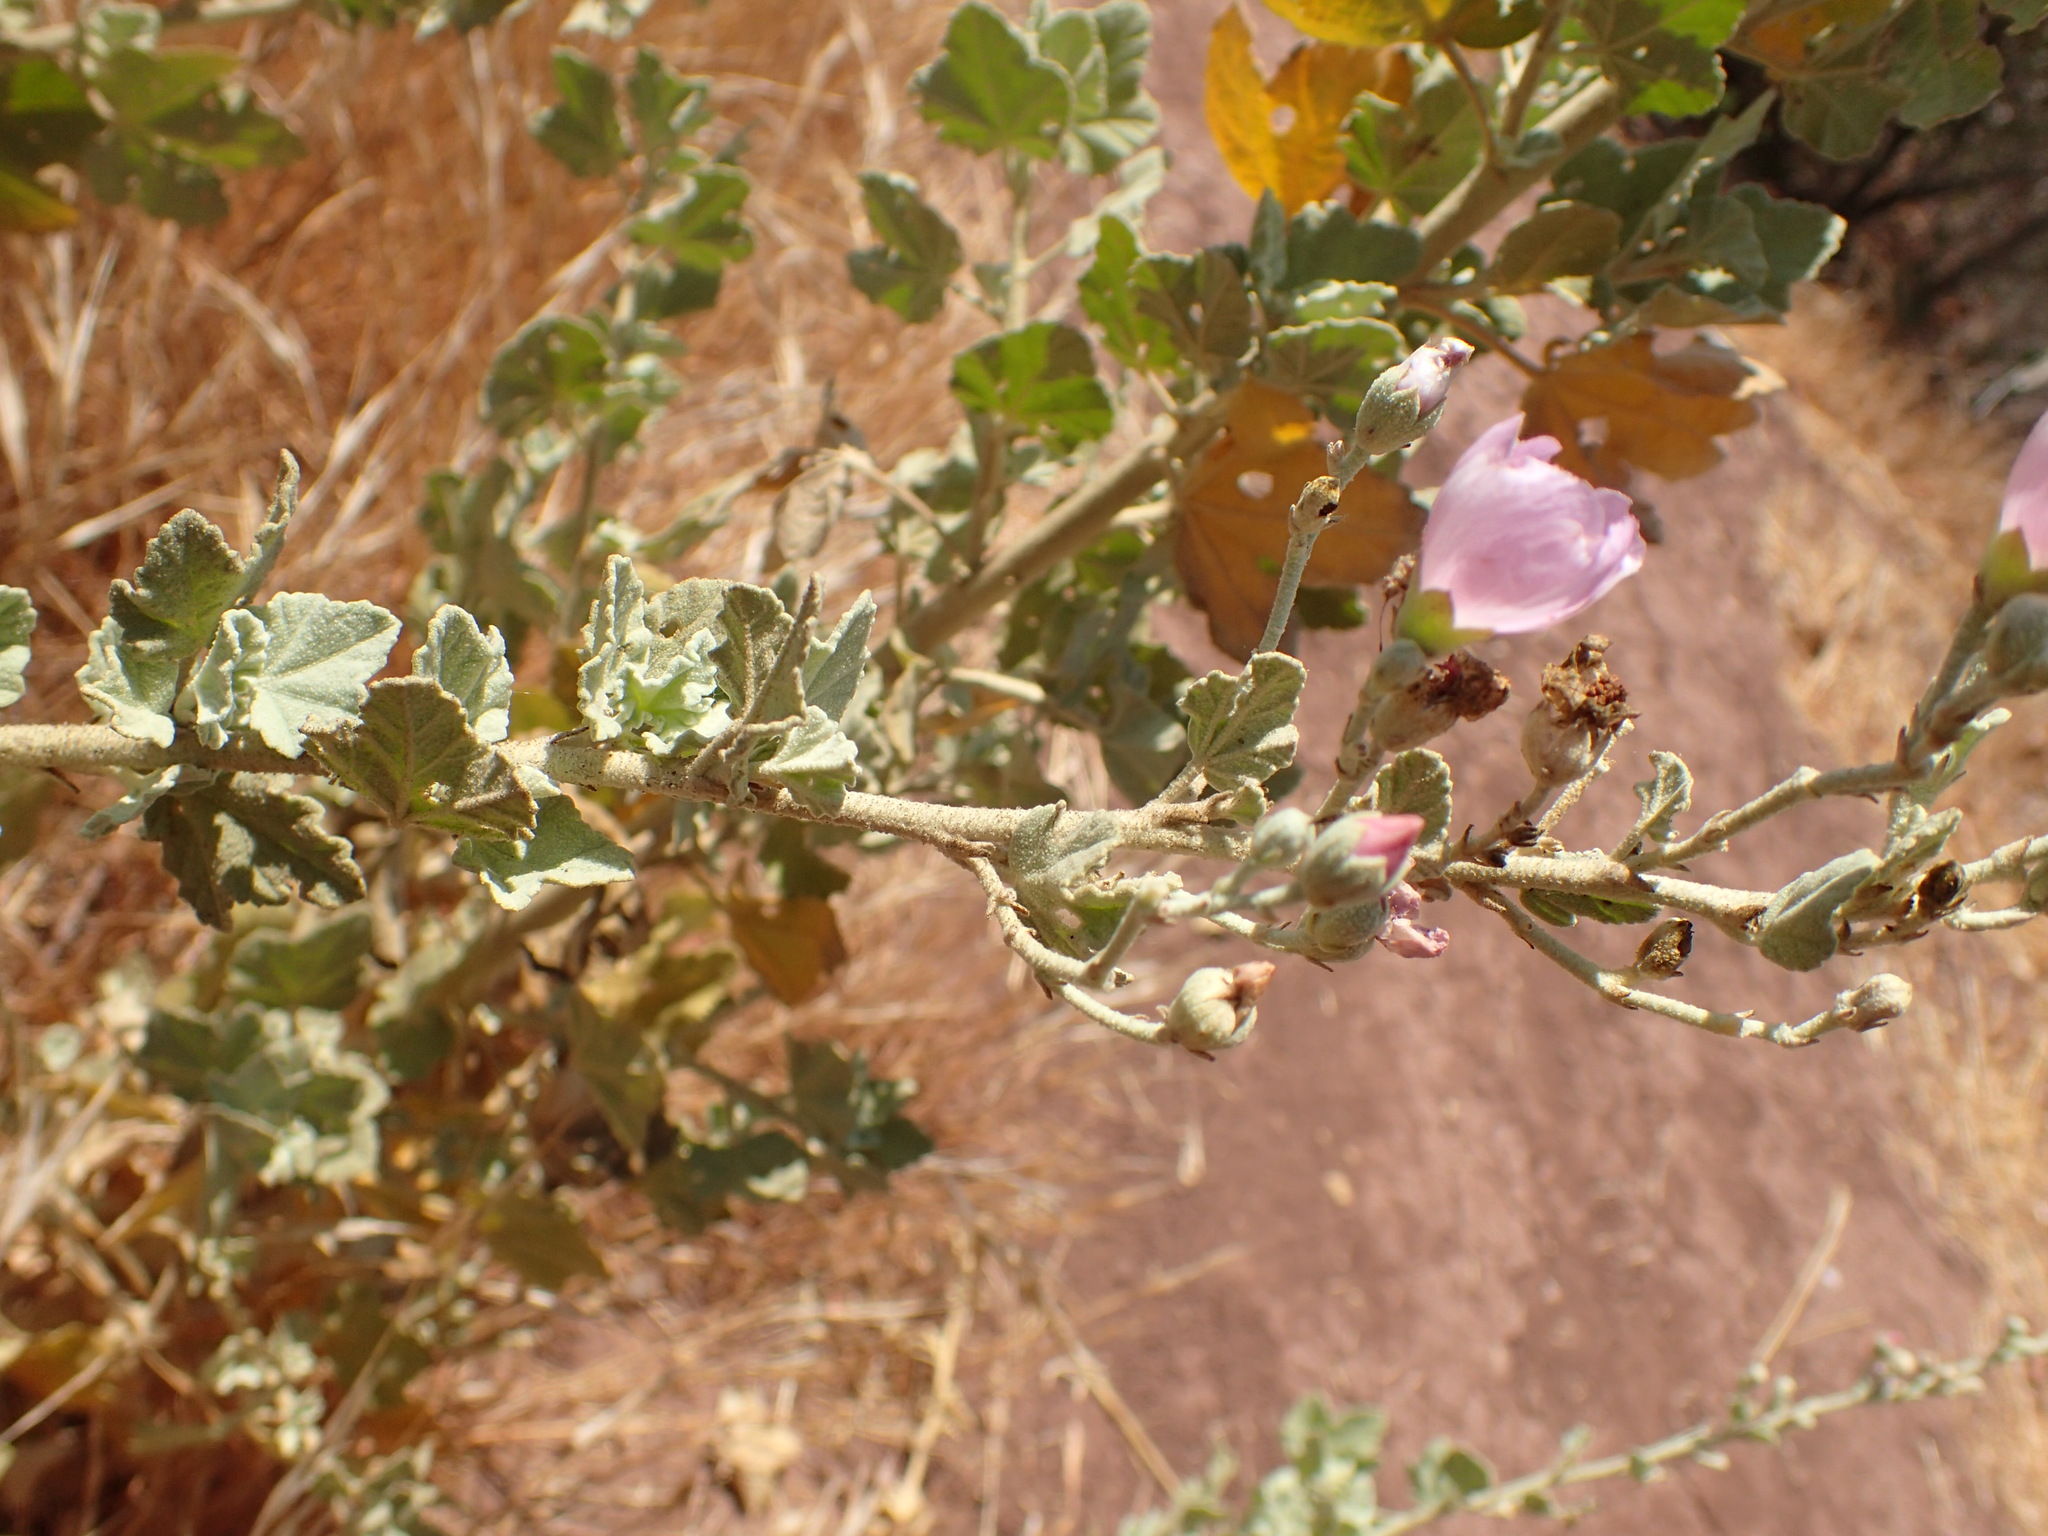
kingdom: Plantae
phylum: Tracheophyta
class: Magnoliopsida
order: Malvales
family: Malvaceae
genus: Malacothamnus
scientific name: Malacothamnus fasciculatus
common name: Sant cruz island bush-mallow
